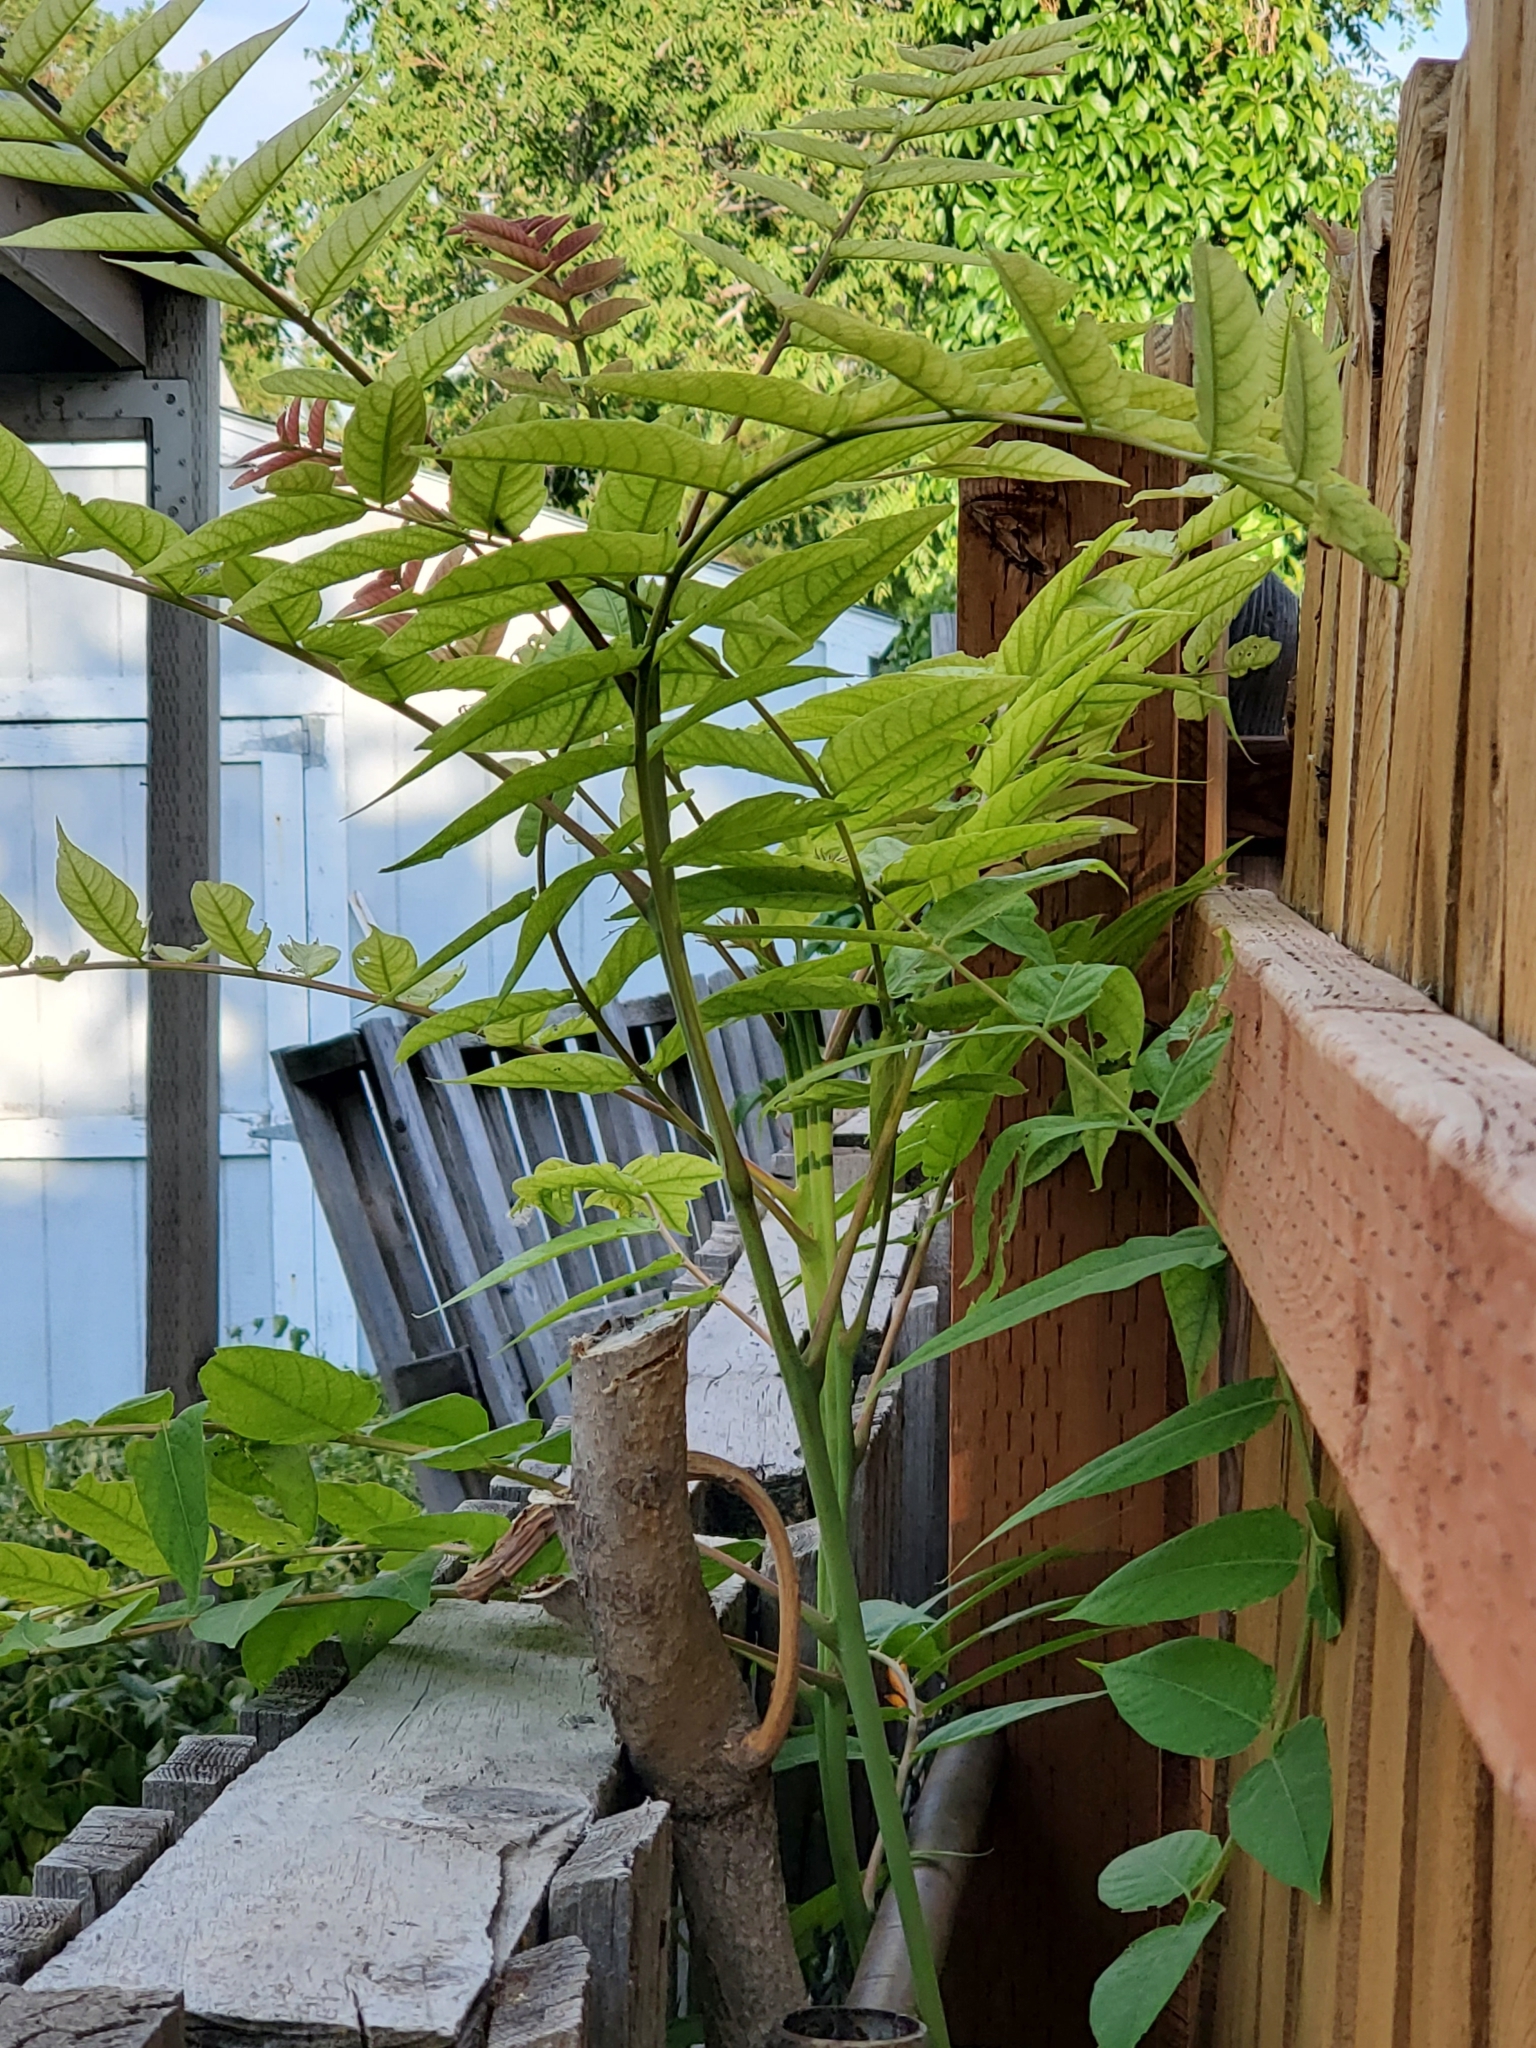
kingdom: Plantae
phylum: Tracheophyta
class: Magnoliopsida
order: Sapindales
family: Simaroubaceae
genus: Ailanthus
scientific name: Ailanthus altissima
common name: Tree-of-heaven
